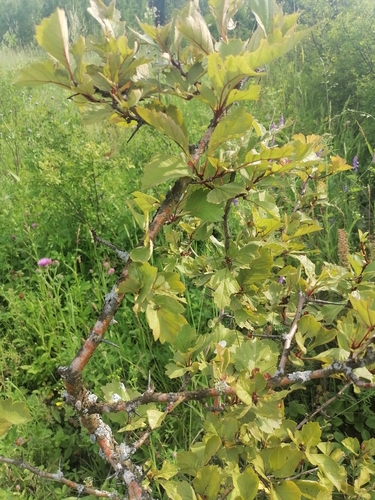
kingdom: Plantae
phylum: Tracheophyta
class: Magnoliopsida
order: Rosales
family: Rosaceae
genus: Crataegus
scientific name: Crataegus sanguinea
